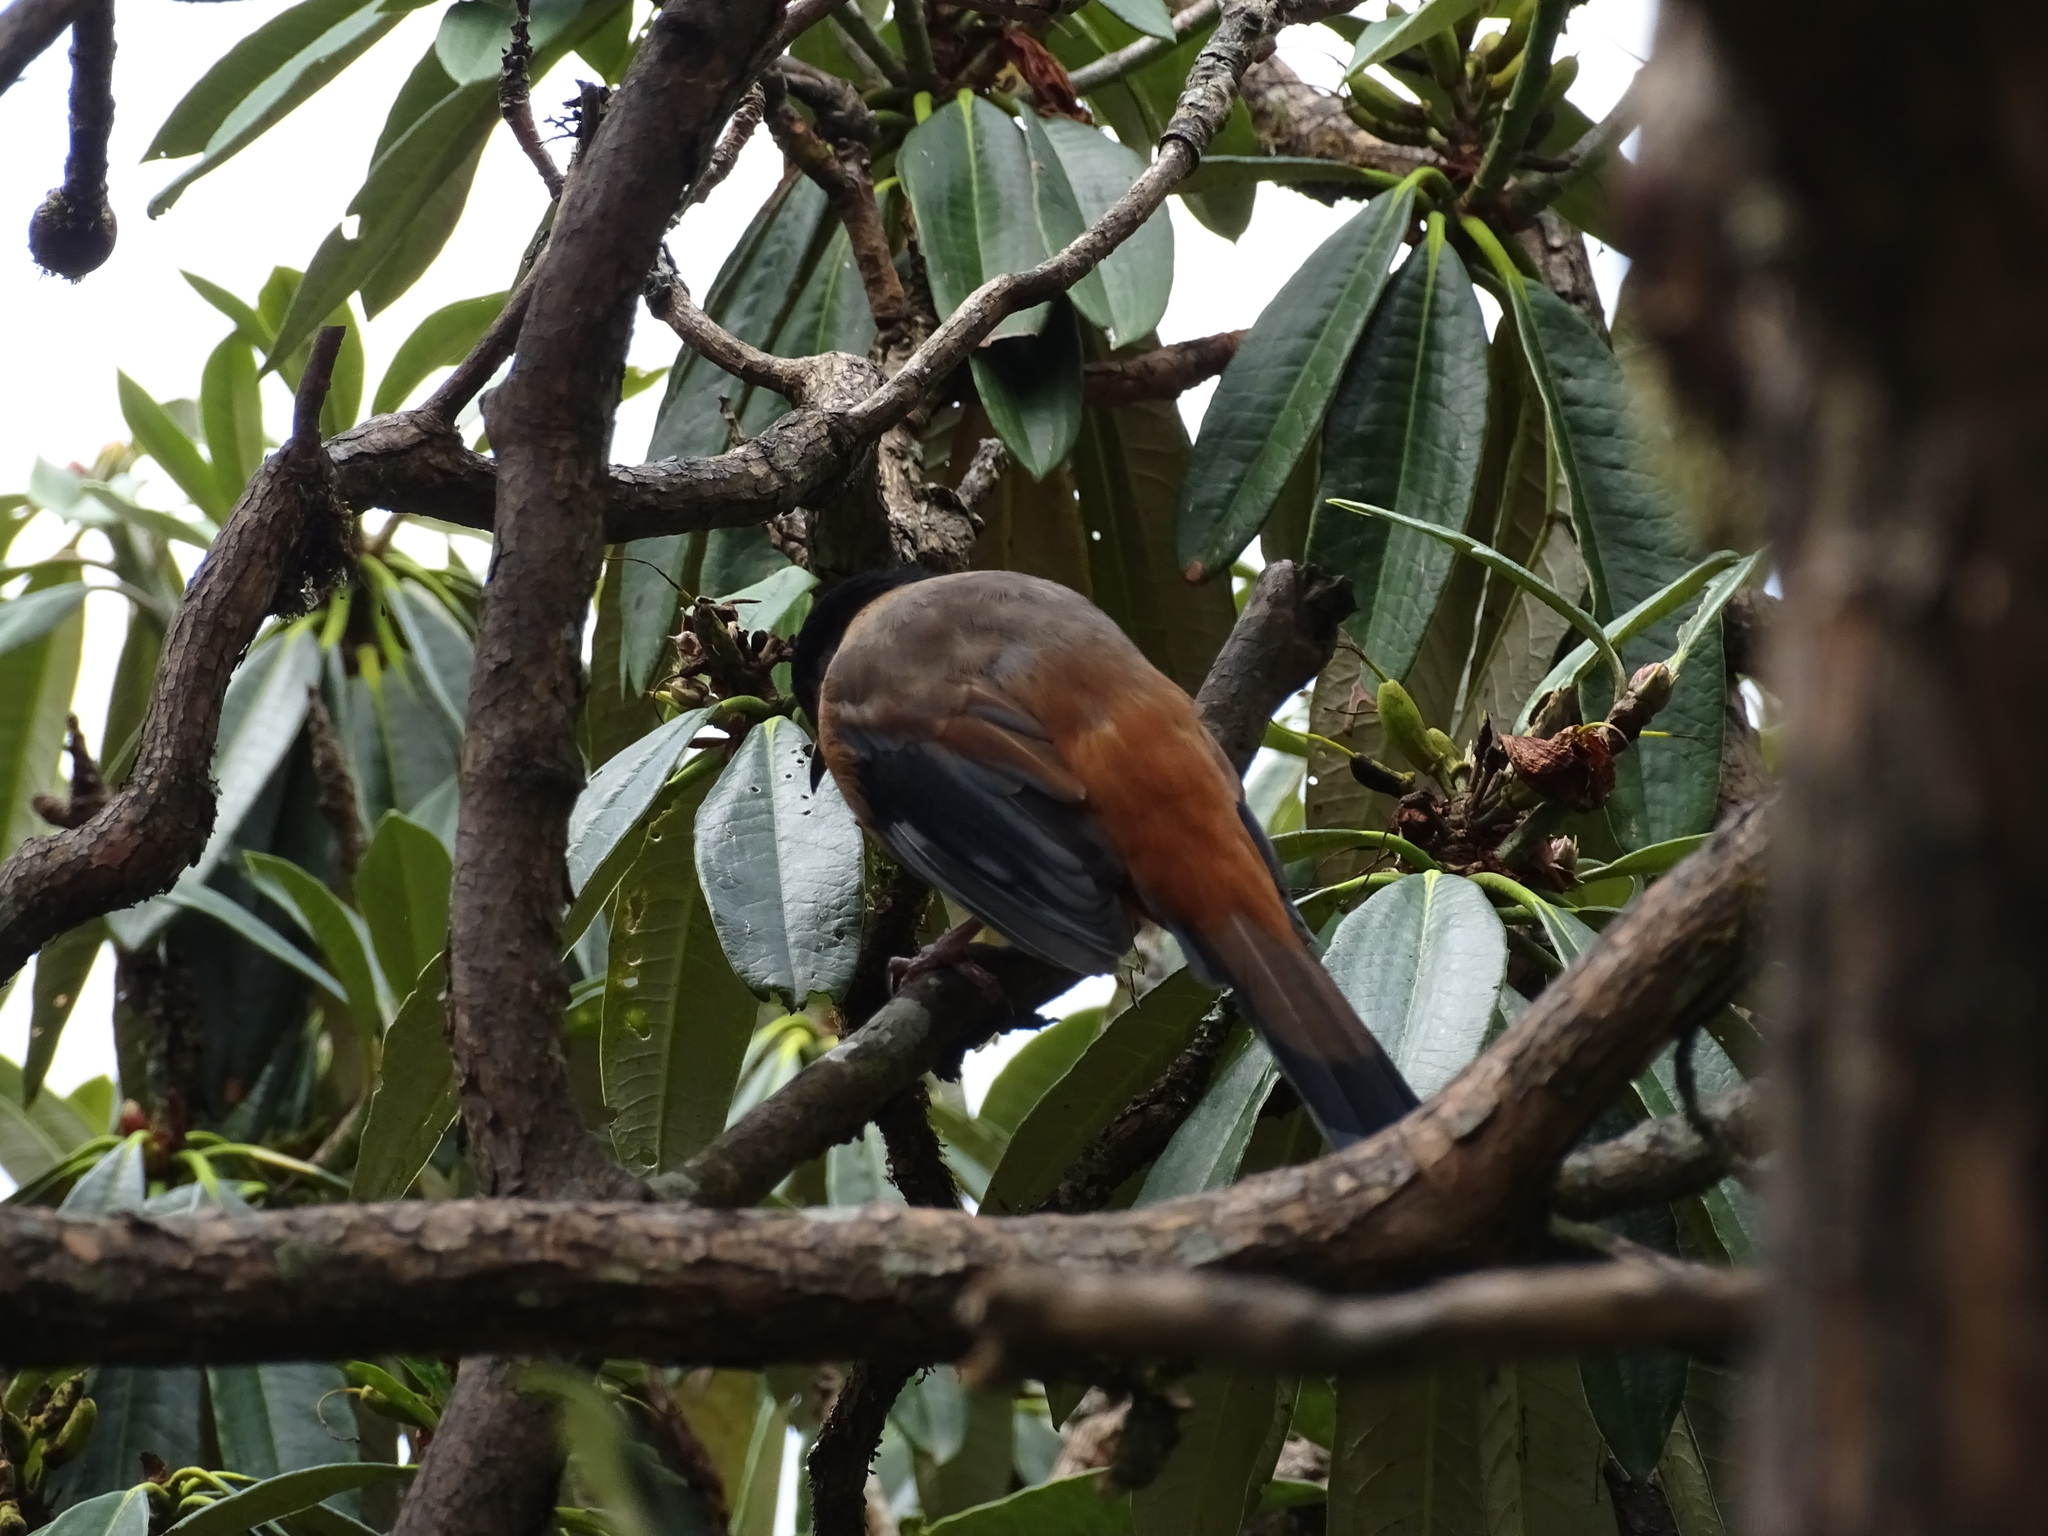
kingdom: Animalia
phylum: Chordata
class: Aves
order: Passeriformes
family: Leiothrichidae
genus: Heterophasia
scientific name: Heterophasia capistrata
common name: Rufous sibia
